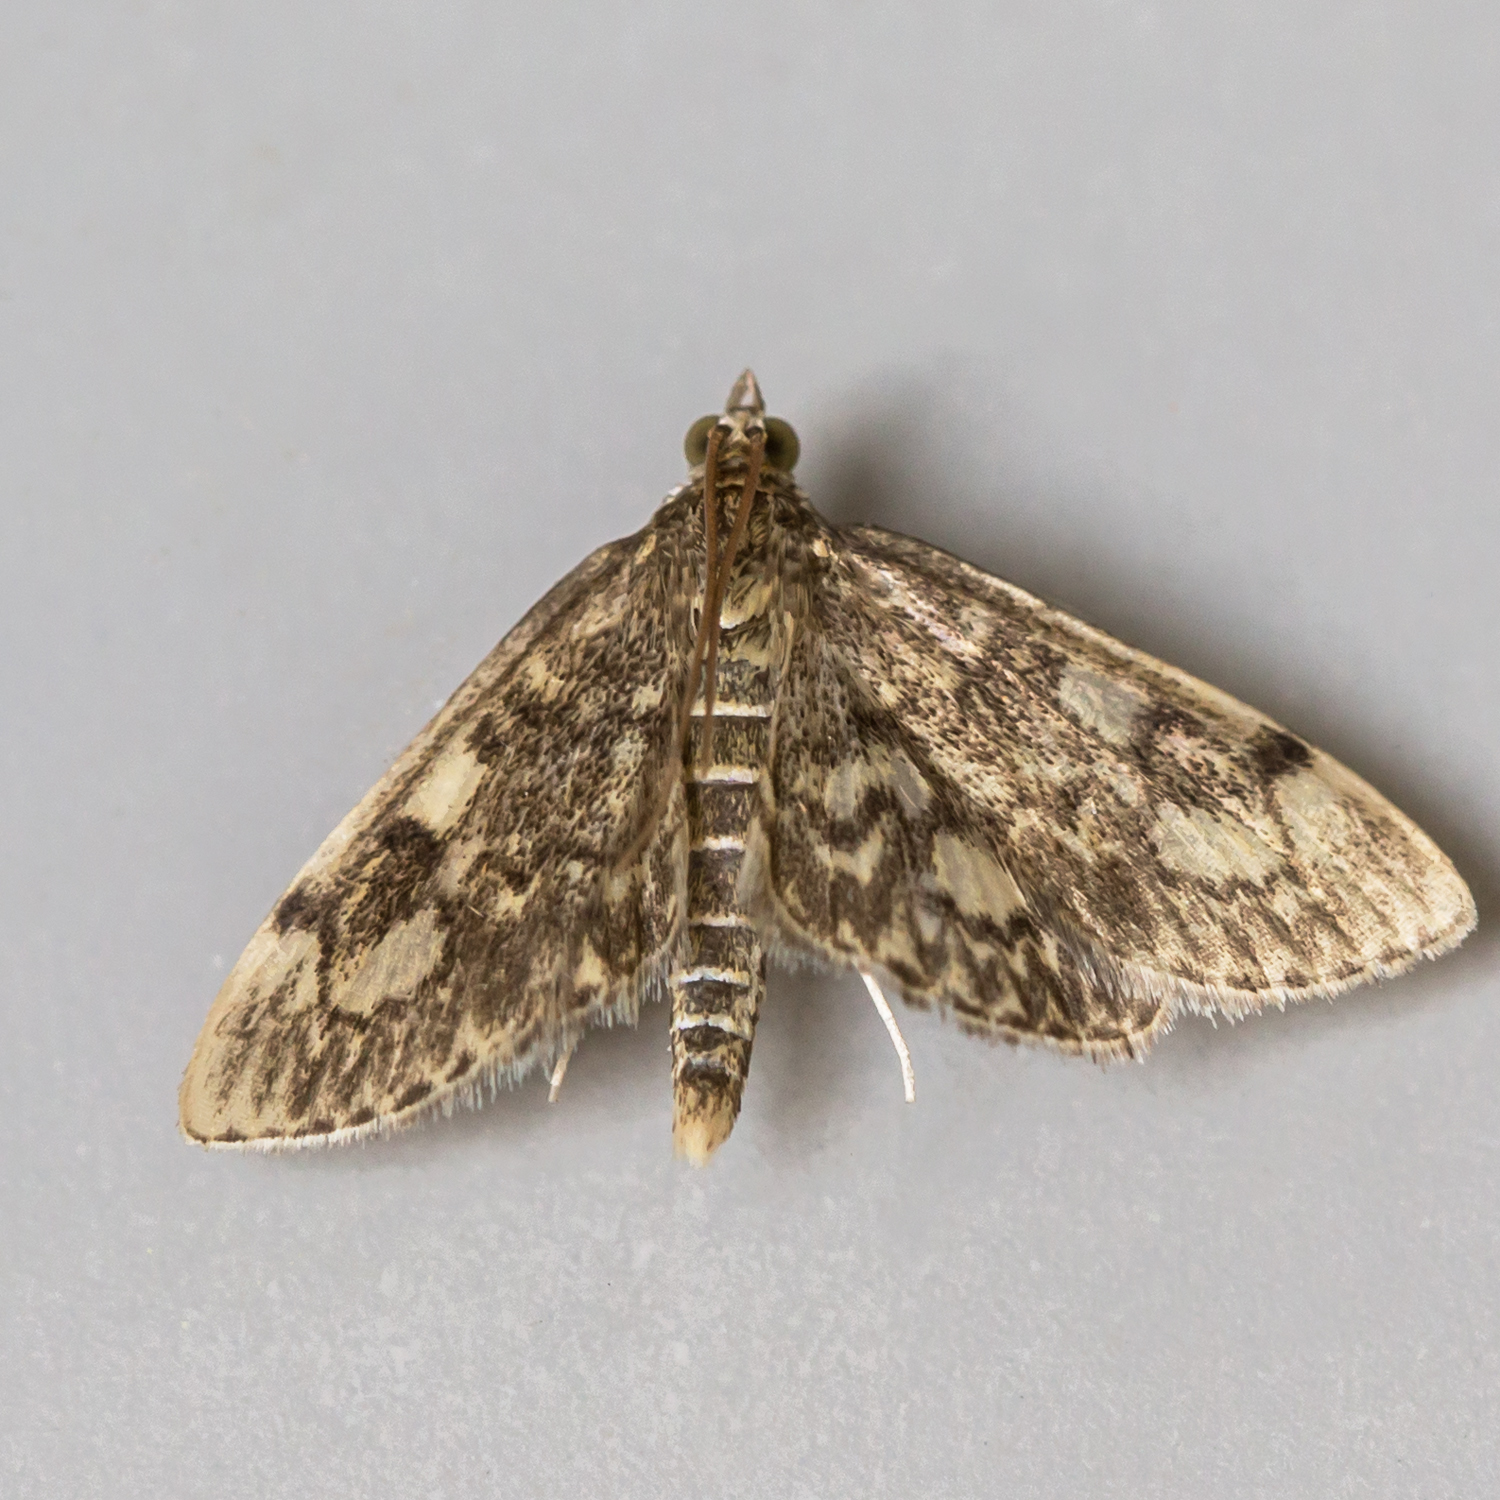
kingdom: Animalia
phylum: Arthropoda
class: Insecta
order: Lepidoptera
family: Crambidae
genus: Anania
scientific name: Anania
